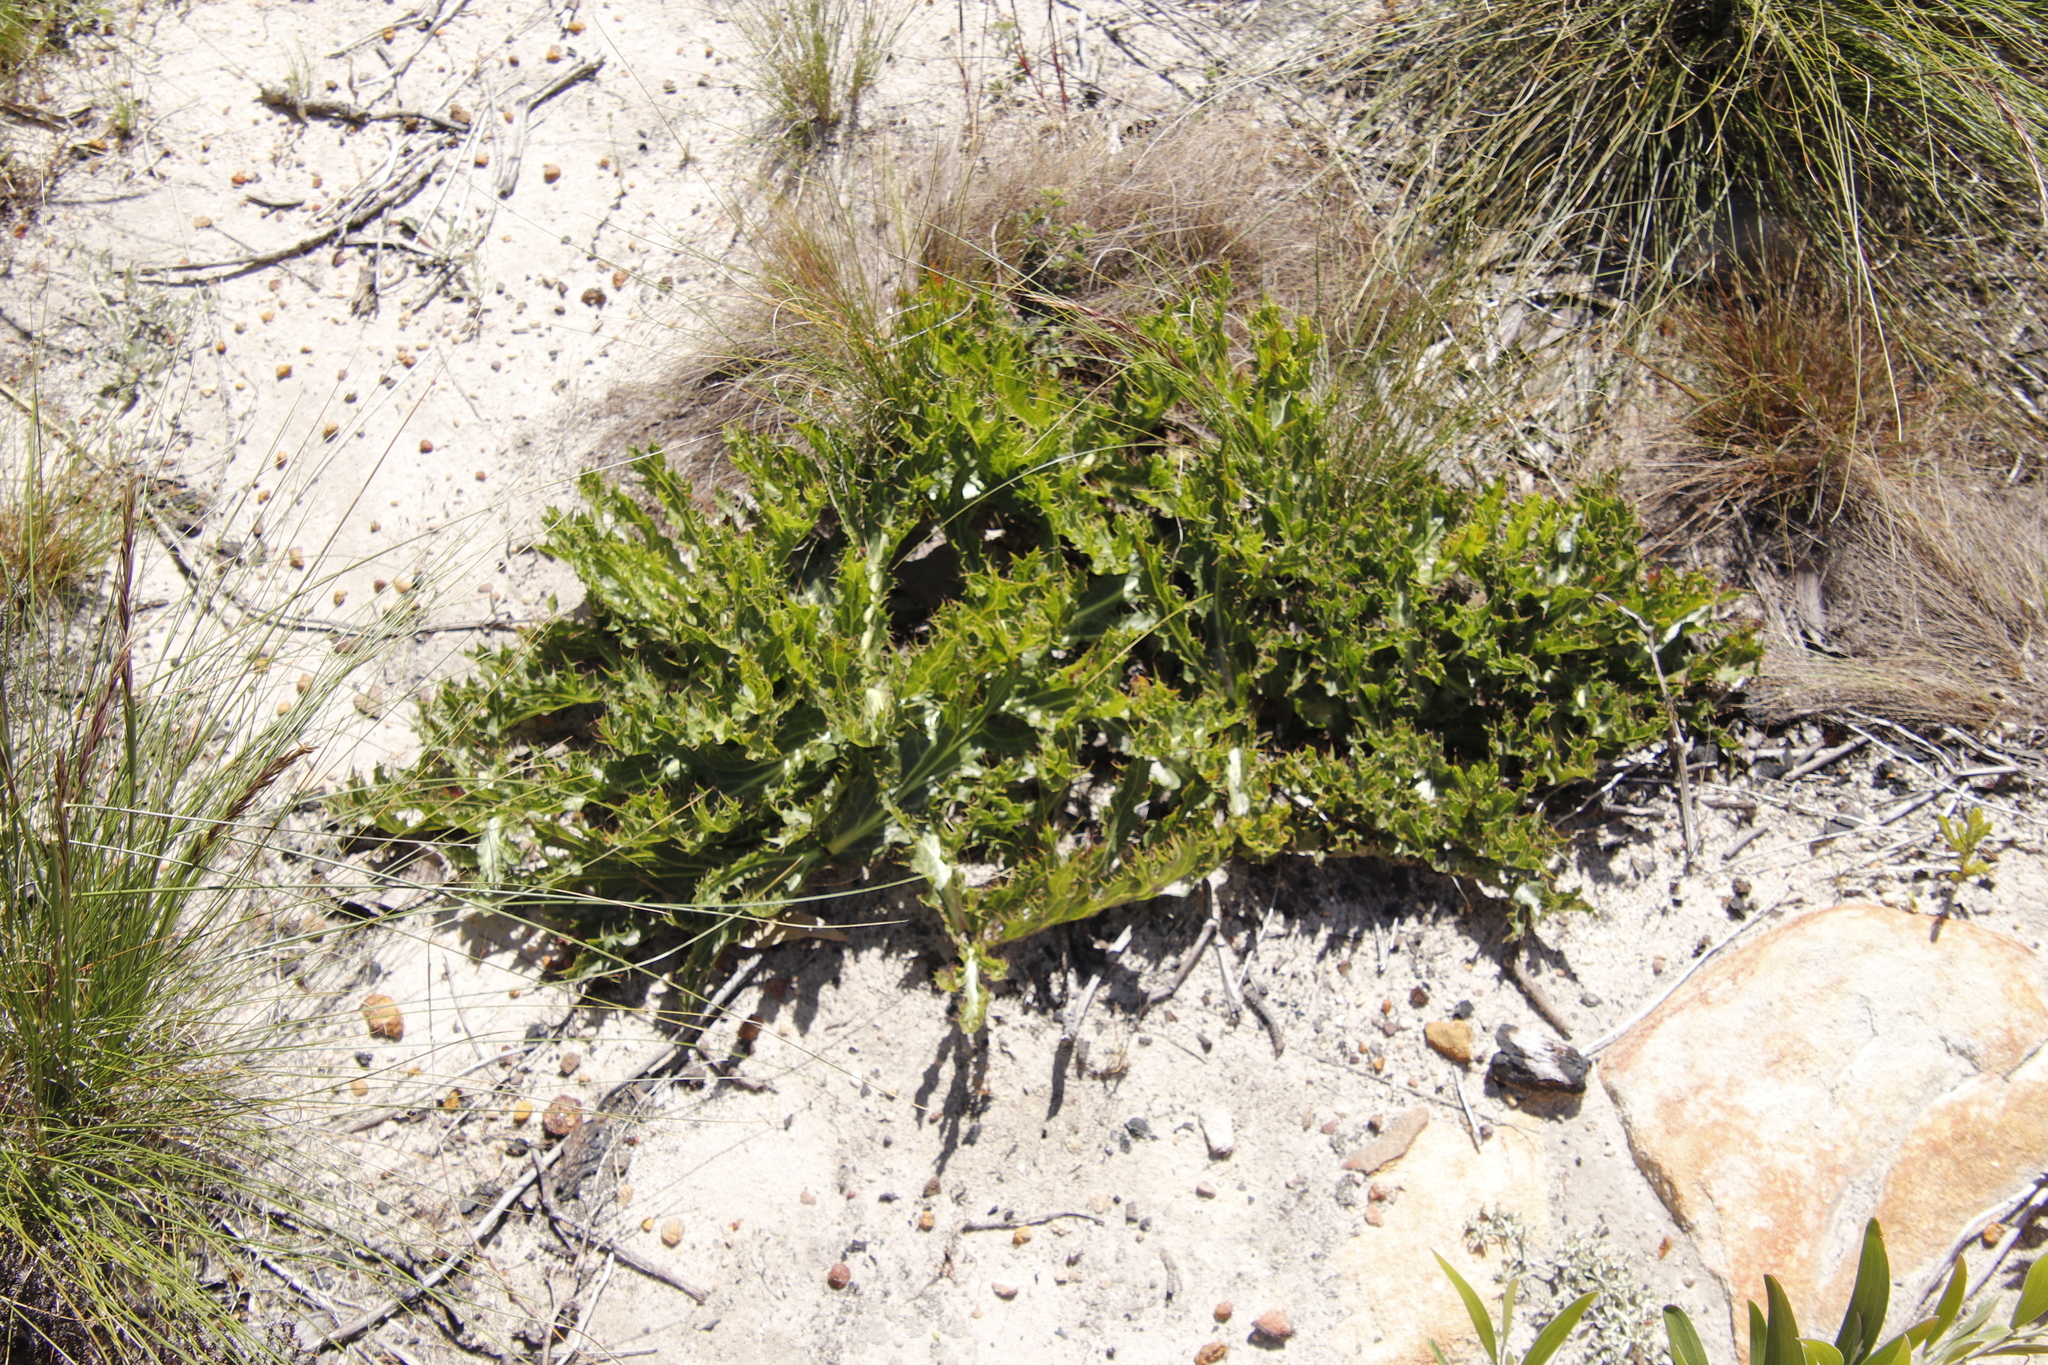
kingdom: Plantae
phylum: Tracheophyta
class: Magnoliopsida
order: Apiales
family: Apiaceae
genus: Lichtensteinia
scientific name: Lichtensteinia lacera
